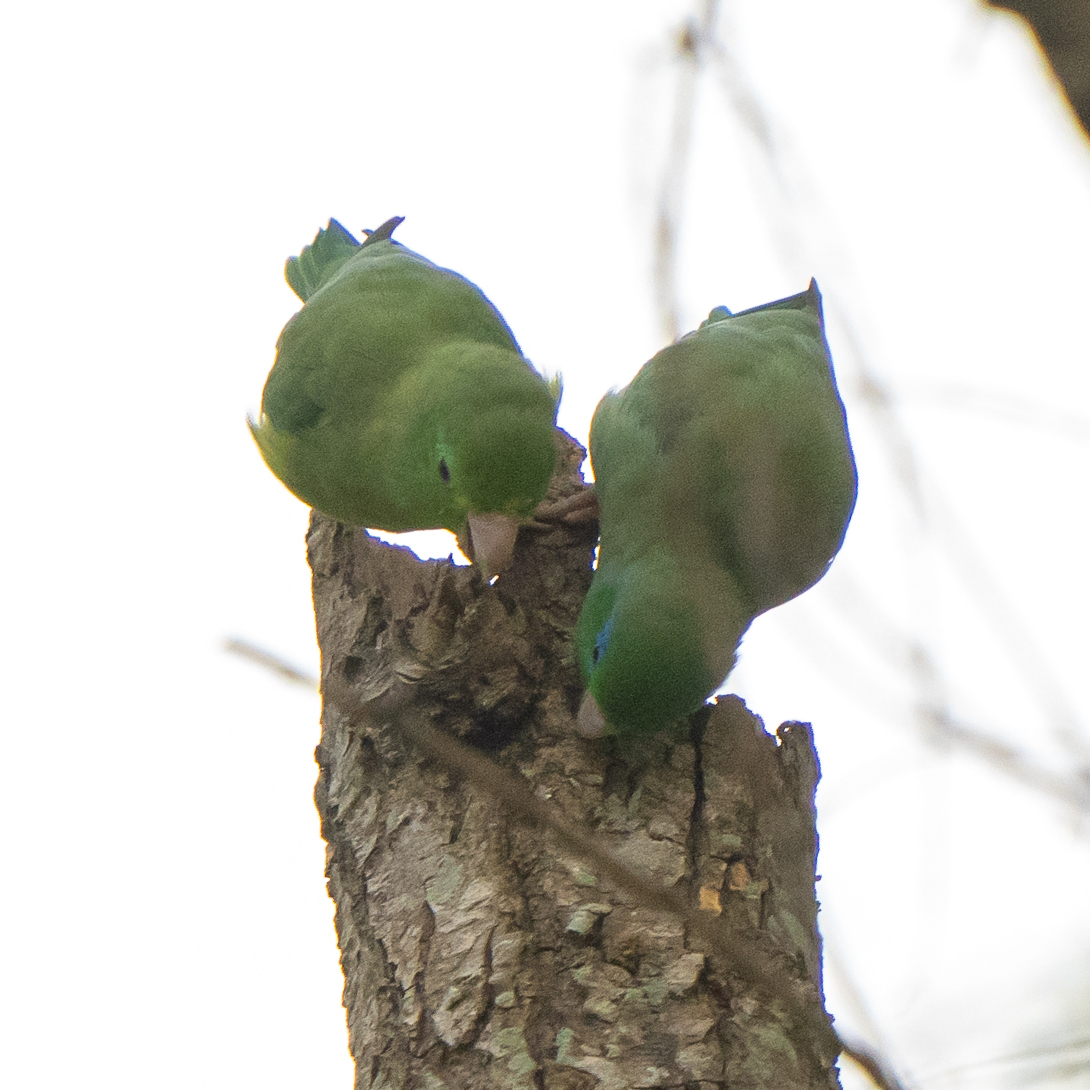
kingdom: Animalia
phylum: Chordata
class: Aves
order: Psittaciformes
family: Psittacidae
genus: Forpus
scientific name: Forpus conspicillatus
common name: Spectacled parrotlet
